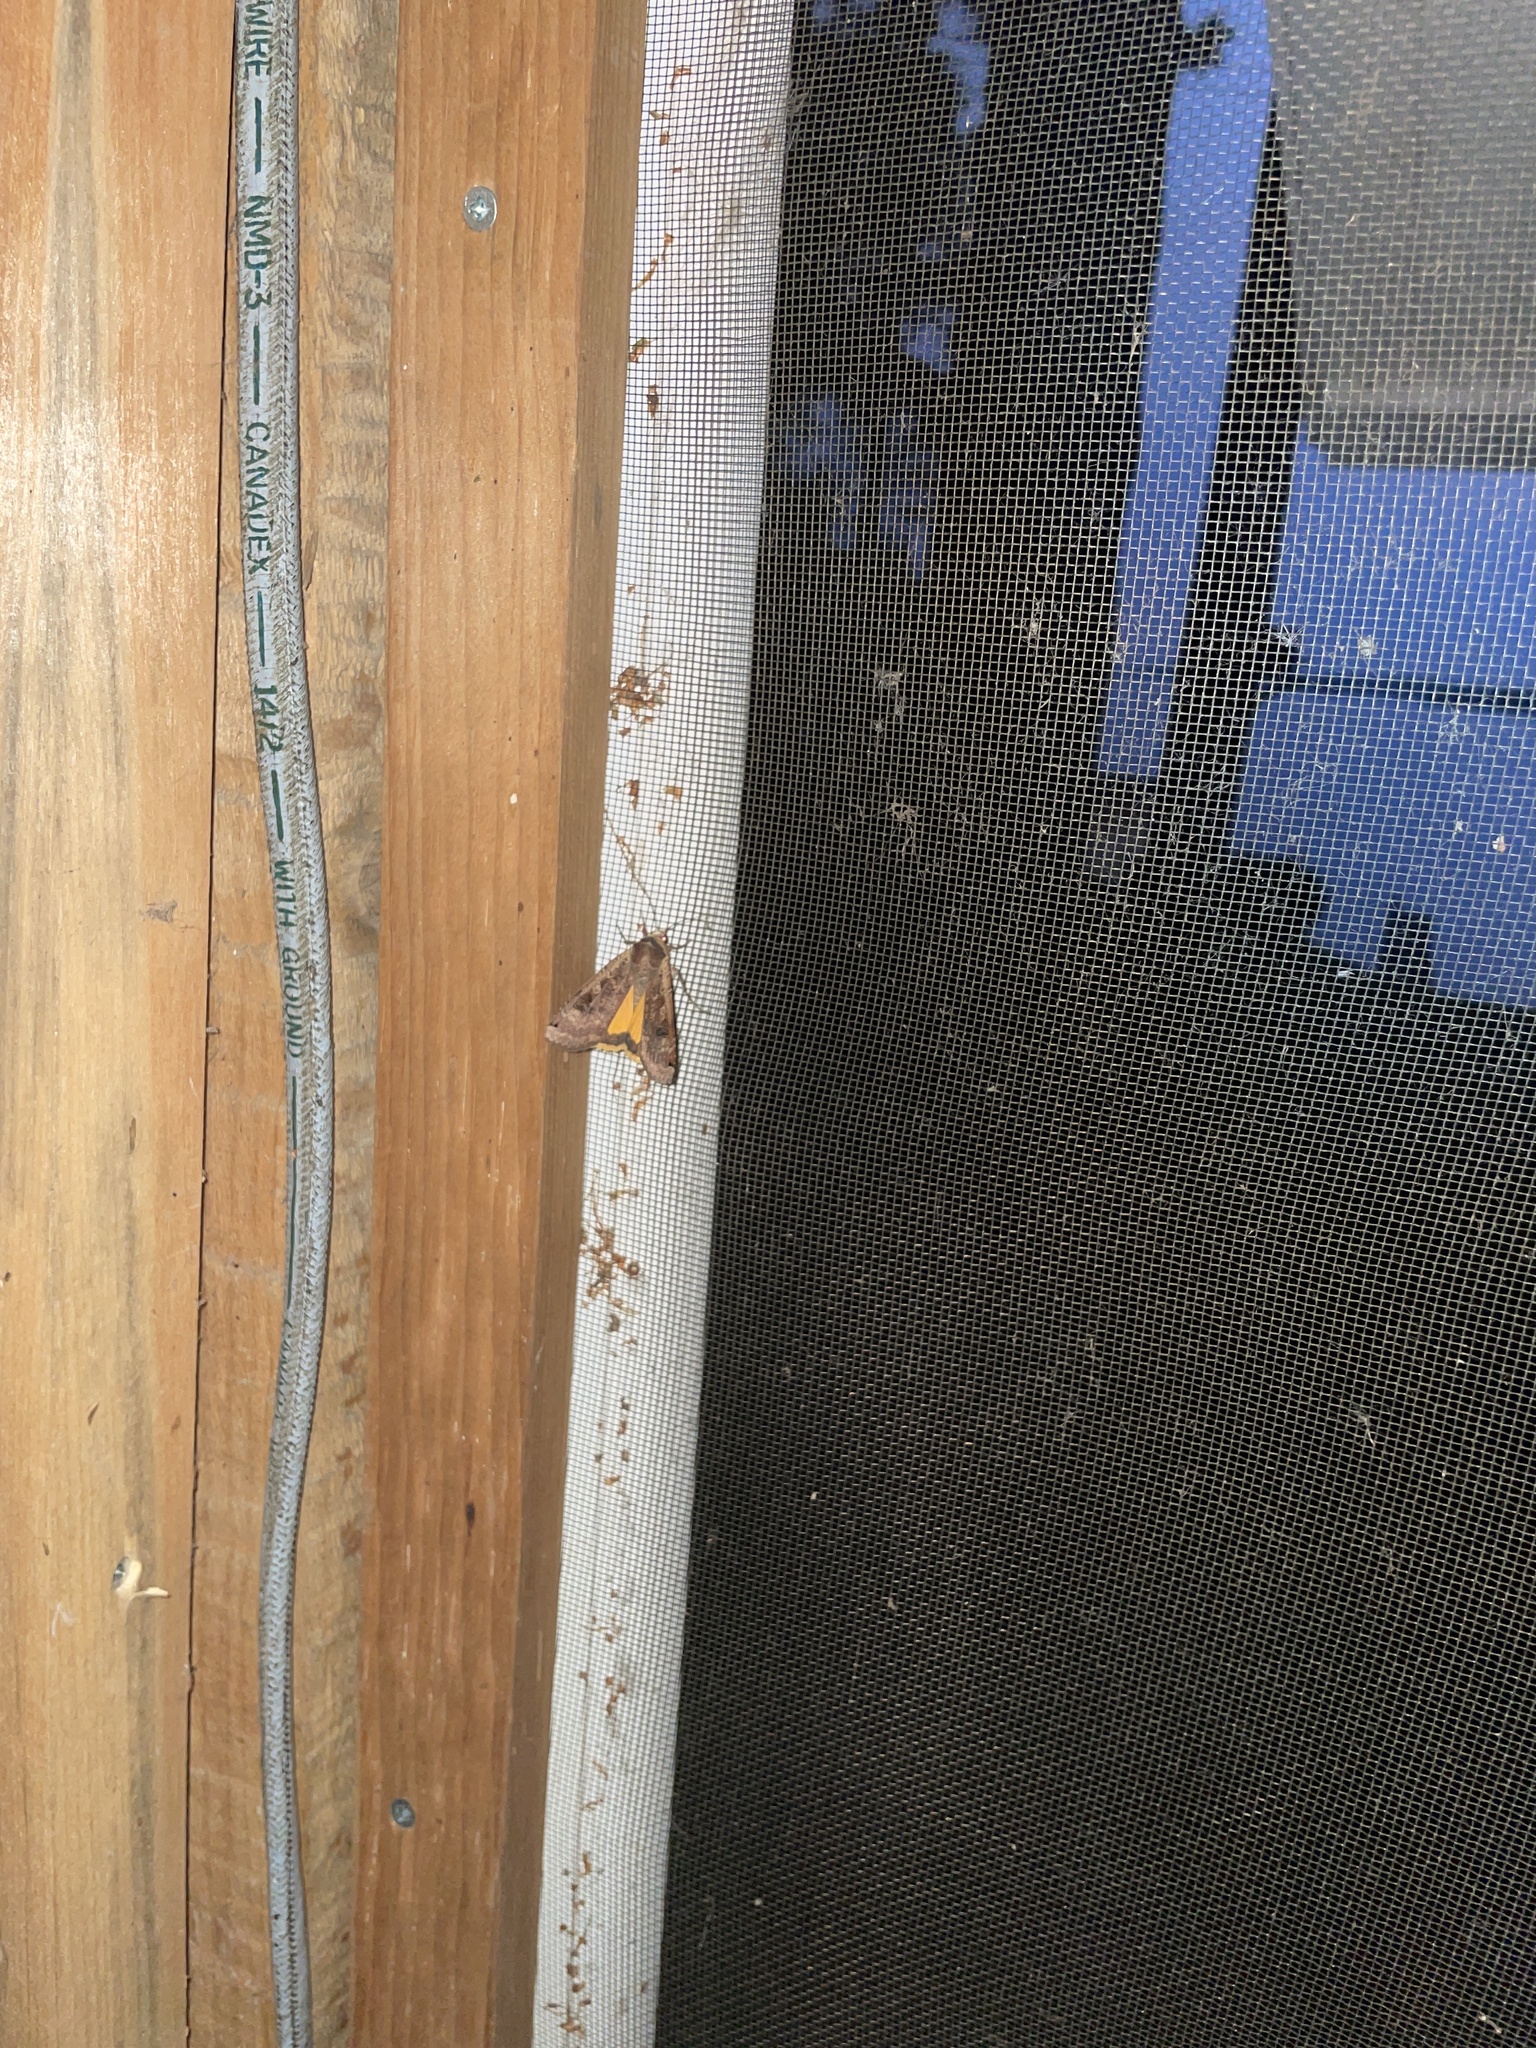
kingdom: Animalia
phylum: Arthropoda
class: Insecta
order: Lepidoptera
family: Noctuidae
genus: Noctua
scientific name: Noctua pronuba
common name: Large yellow underwing
